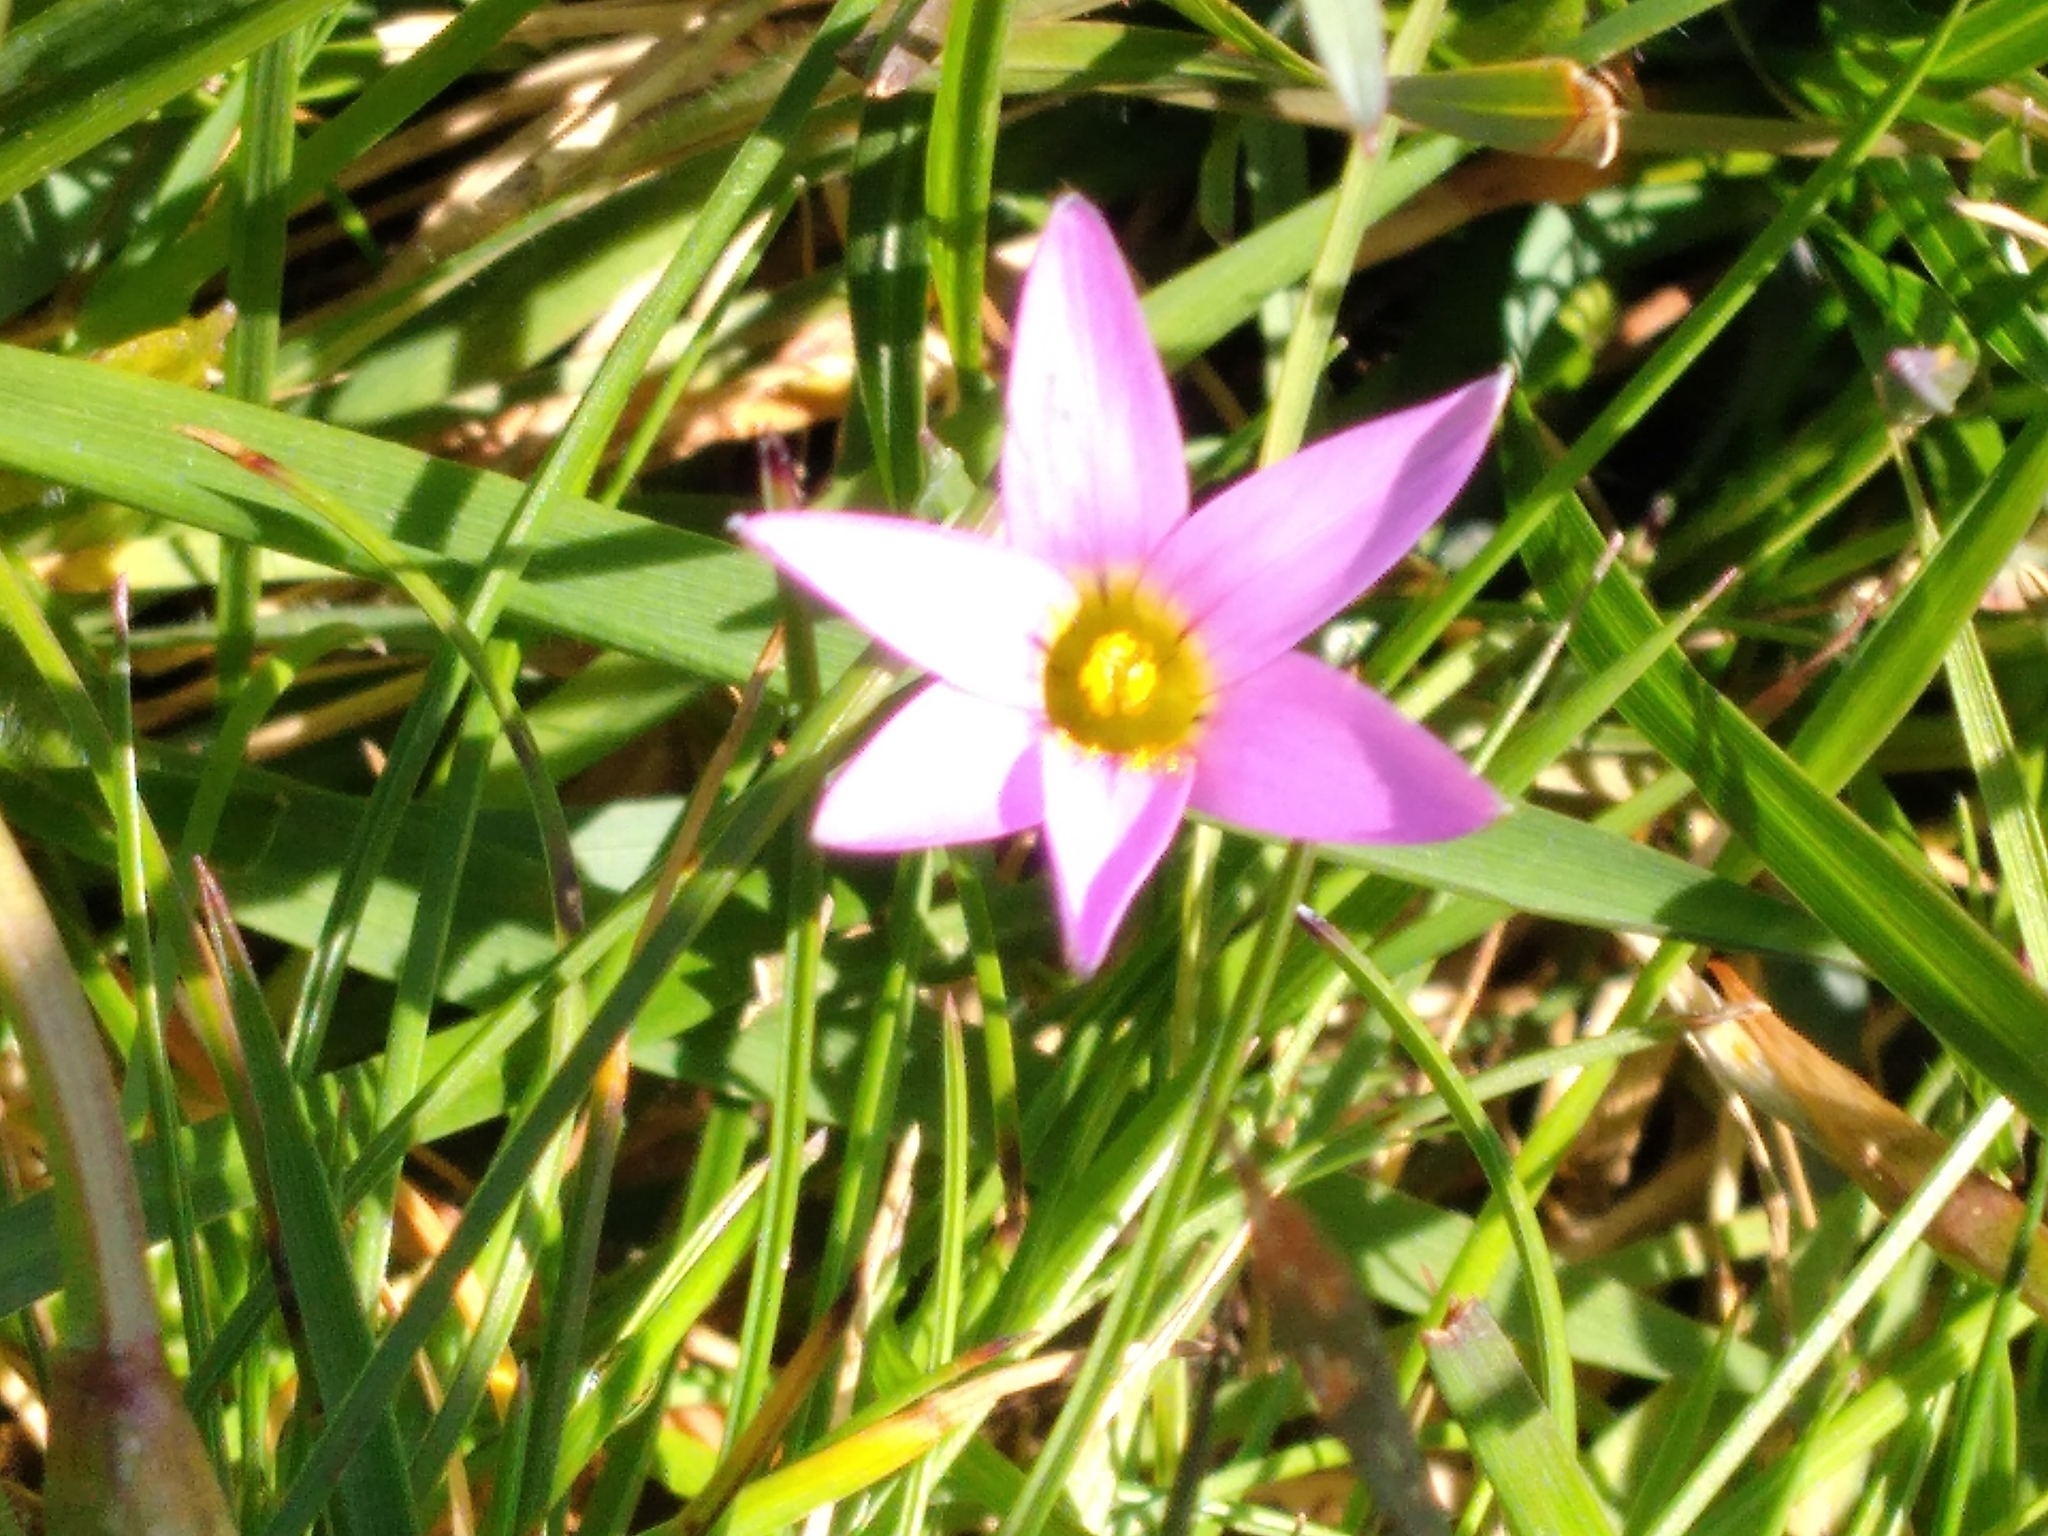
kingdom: Plantae
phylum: Tracheophyta
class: Liliopsida
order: Asparagales
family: Iridaceae
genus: Romulea
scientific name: Romulea rosea
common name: Oniongrass
